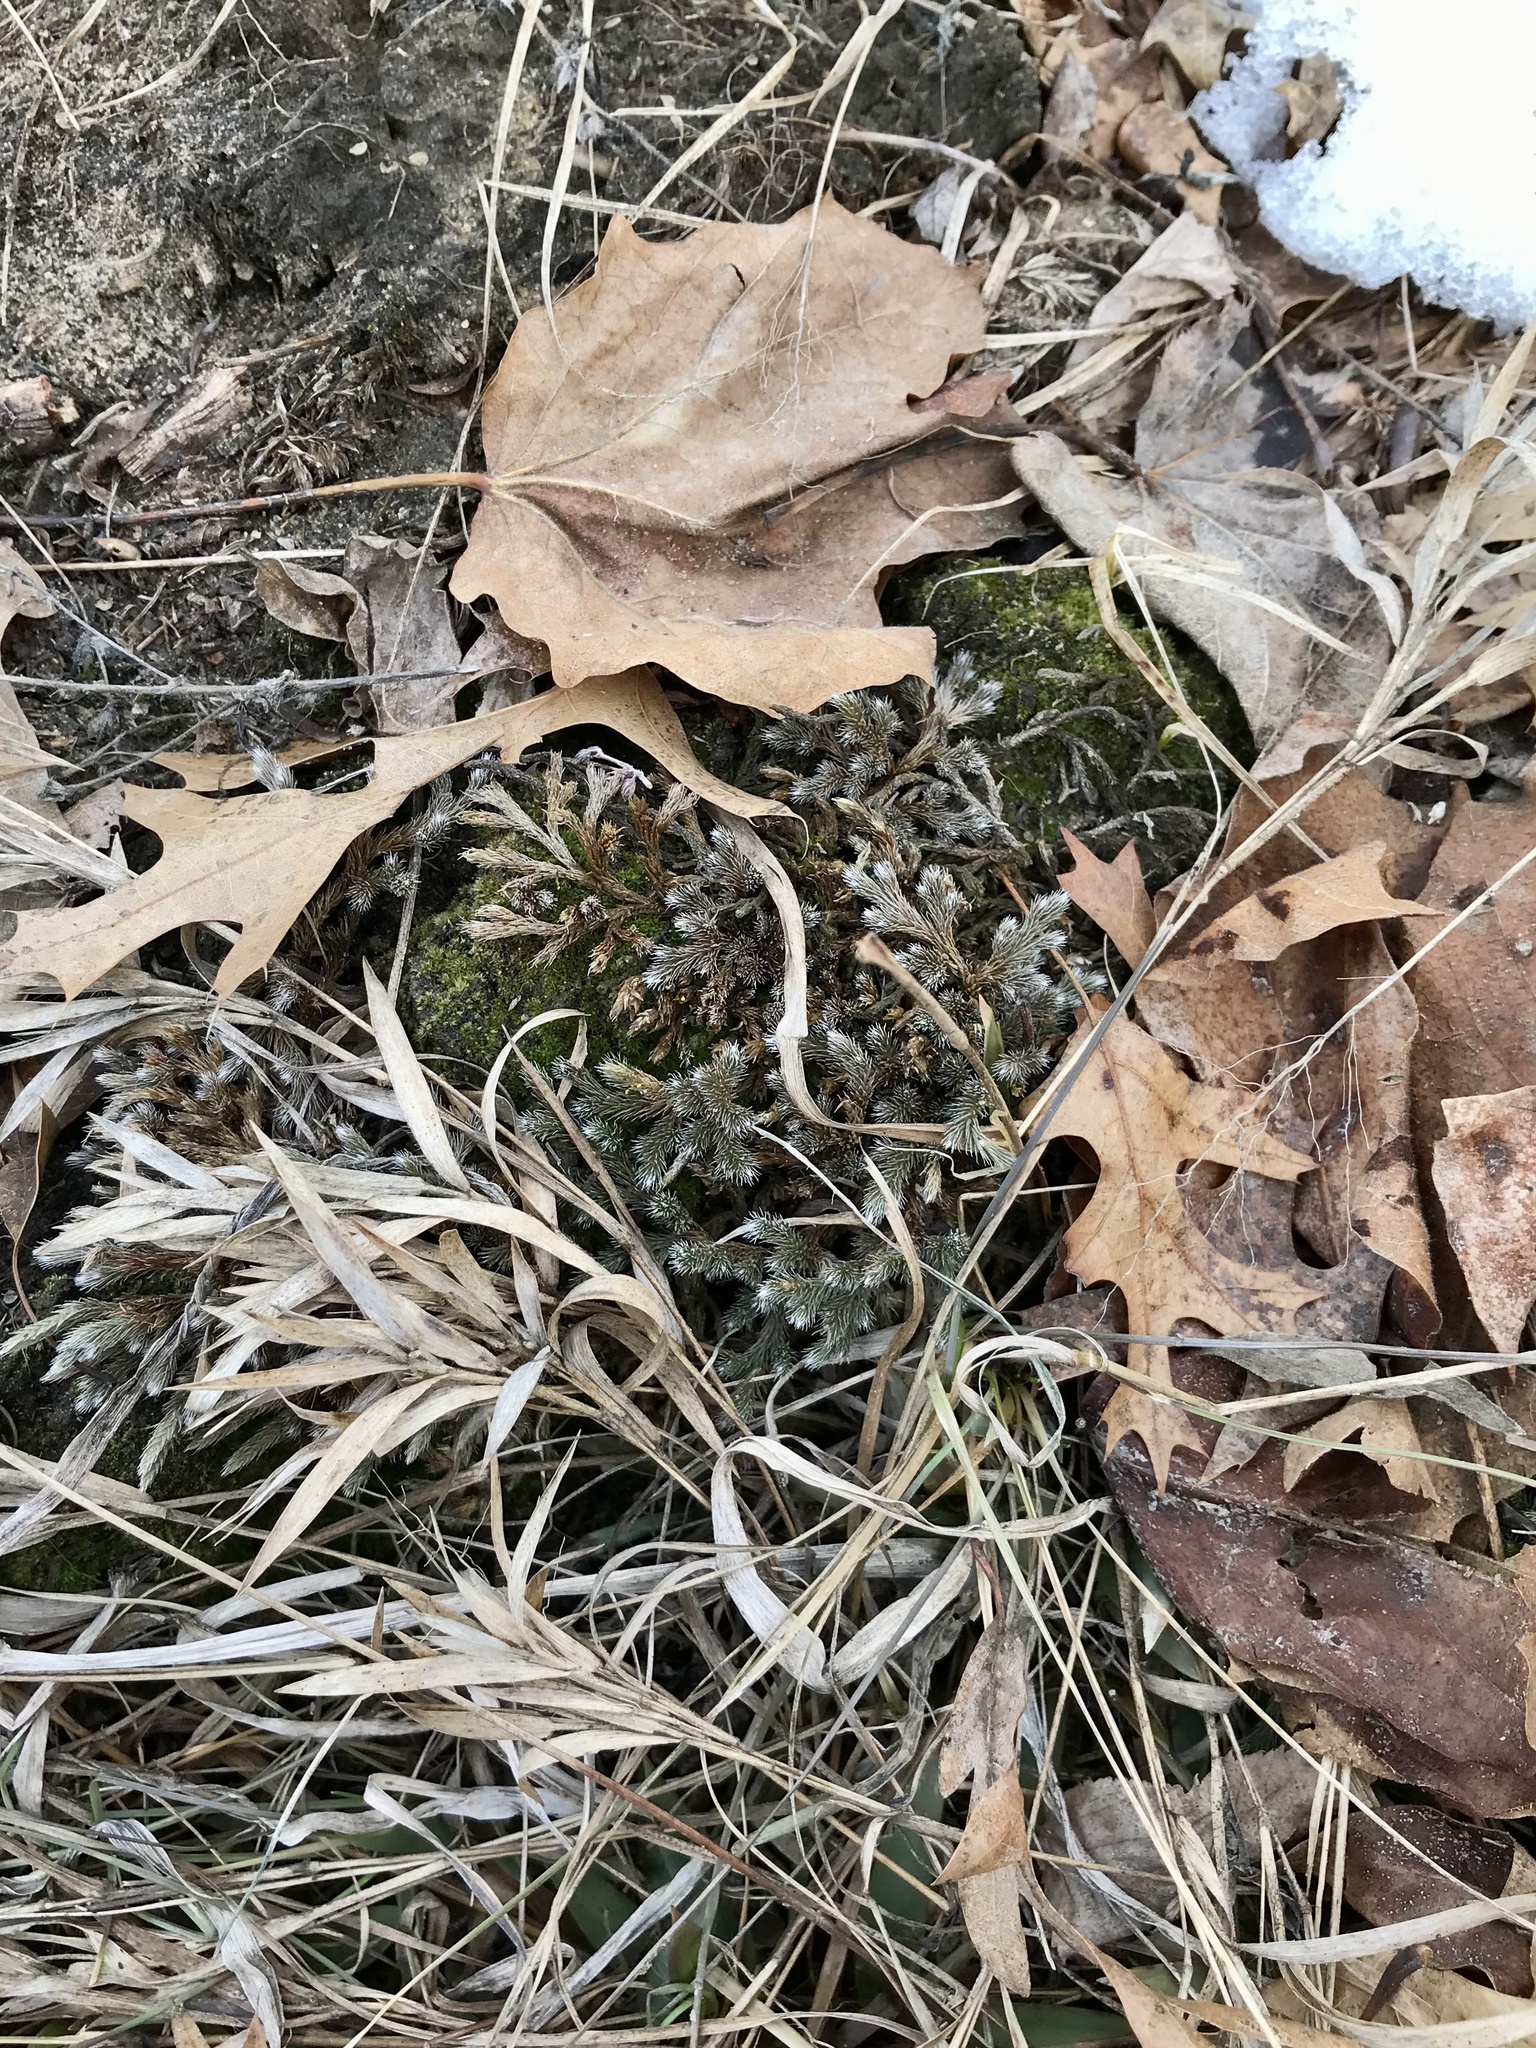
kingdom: Plantae
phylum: Tracheophyta
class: Lycopodiopsida
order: Selaginellales
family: Selaginellaceae
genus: Selaginella
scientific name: Selaginella rupestris
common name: Dwarf spikemoss
